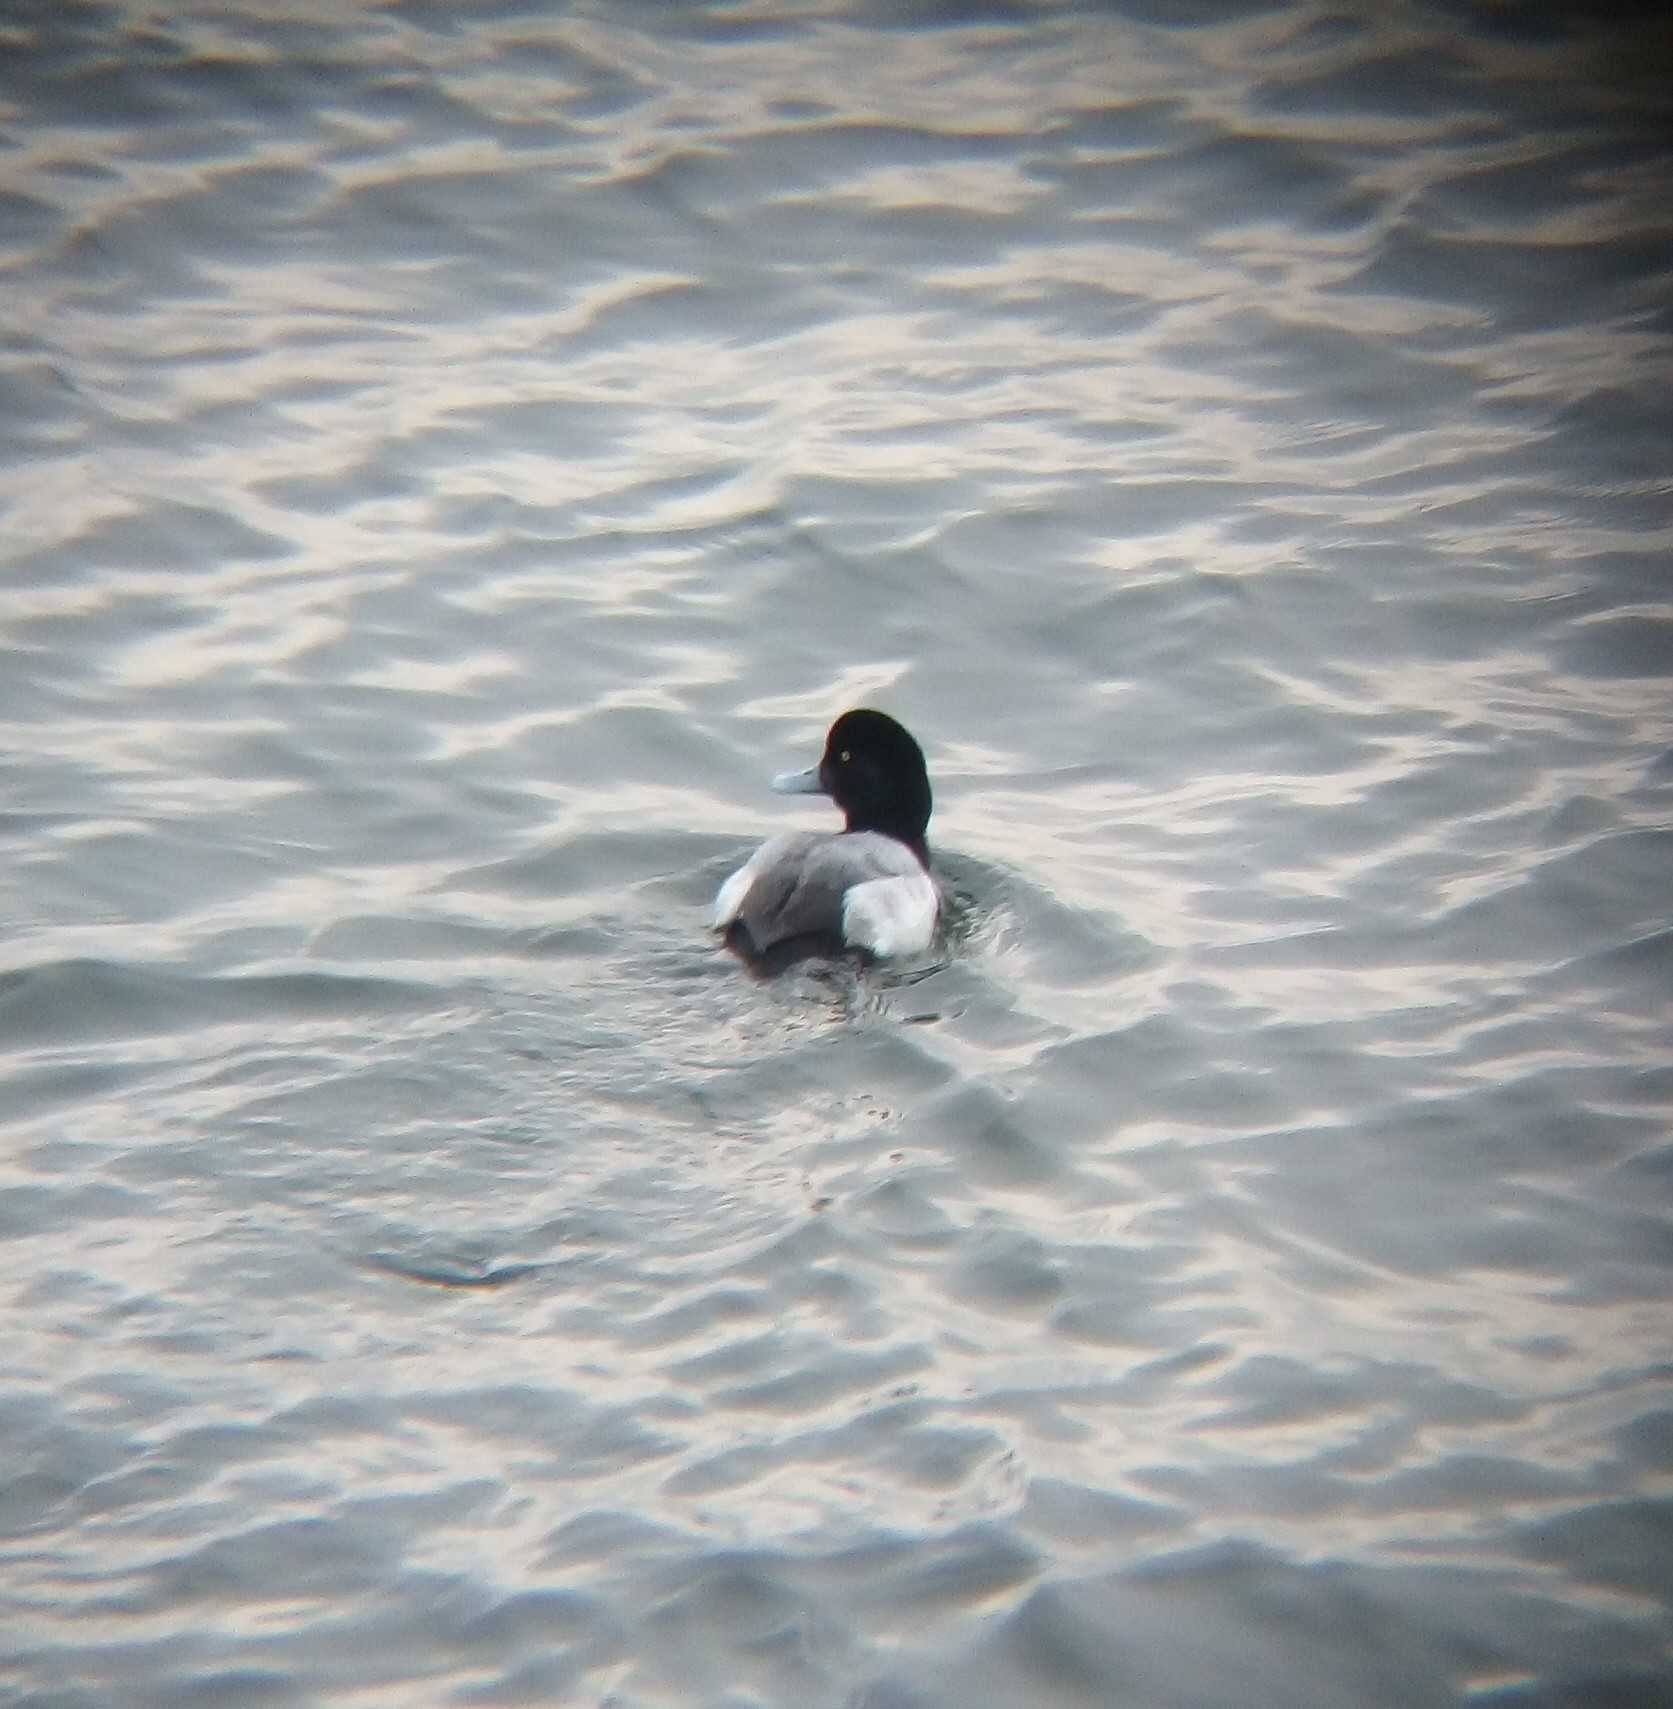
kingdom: Animalia
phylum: Chordata
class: Aves
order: Anseriformes
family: Anatidae
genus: Aythya
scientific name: Aythya marila
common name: Greater scaup
